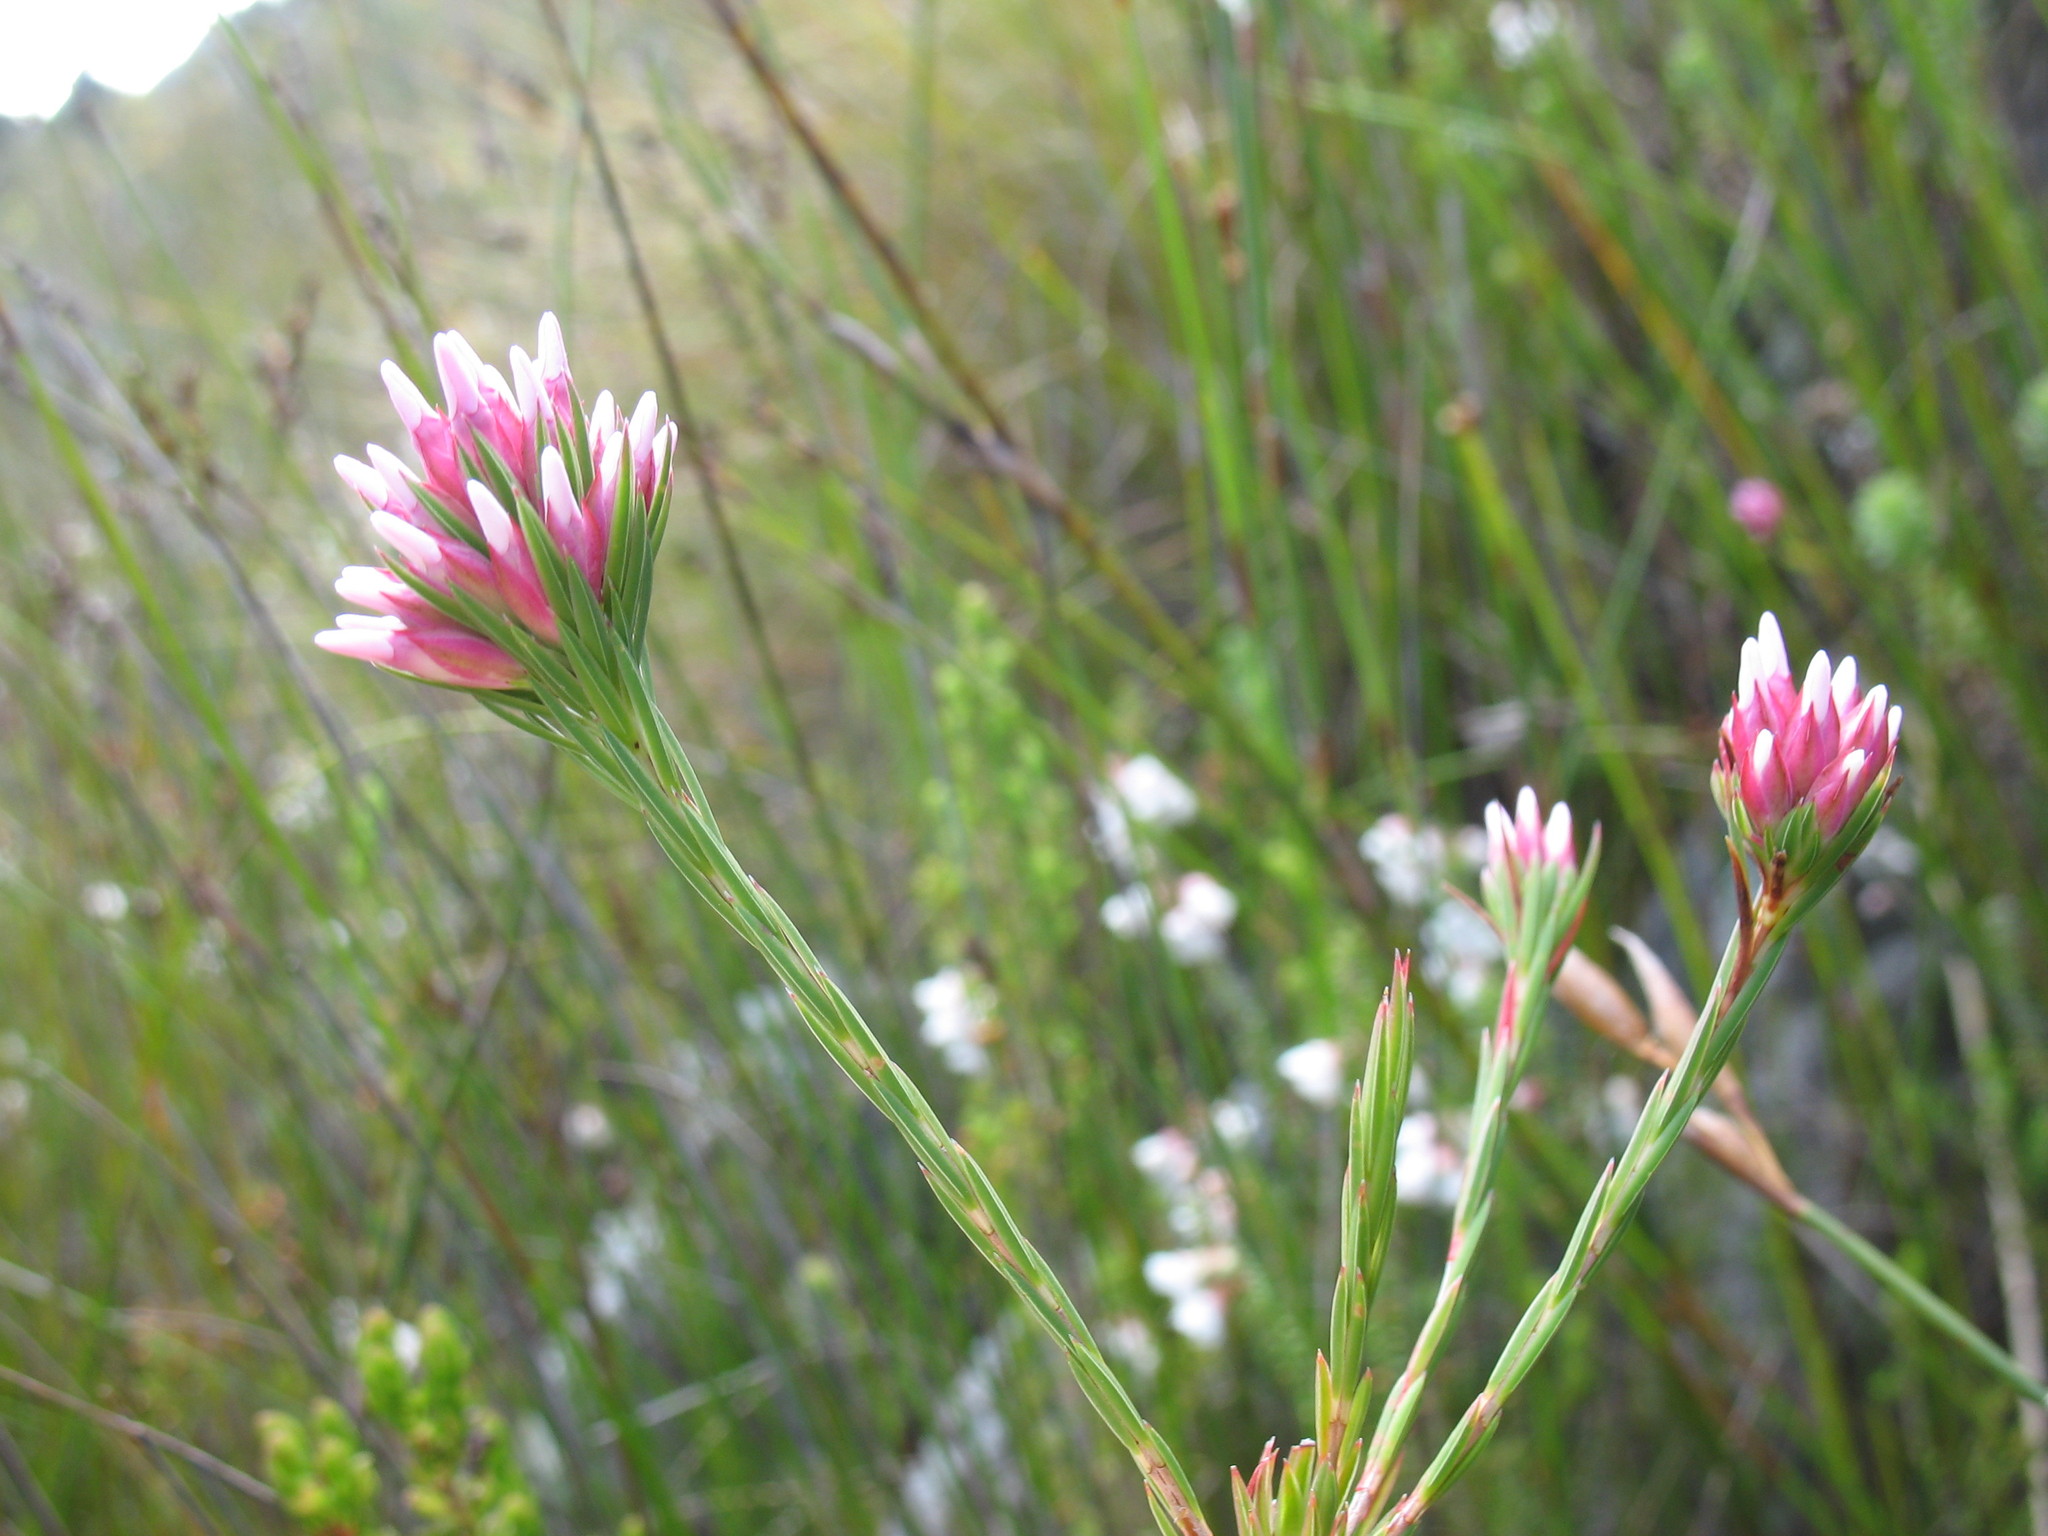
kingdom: Plantae
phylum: Tracheophyta
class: Magnoliopsida
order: Ericales
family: Ericaceae
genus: Erica
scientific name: Erica pycnantha
